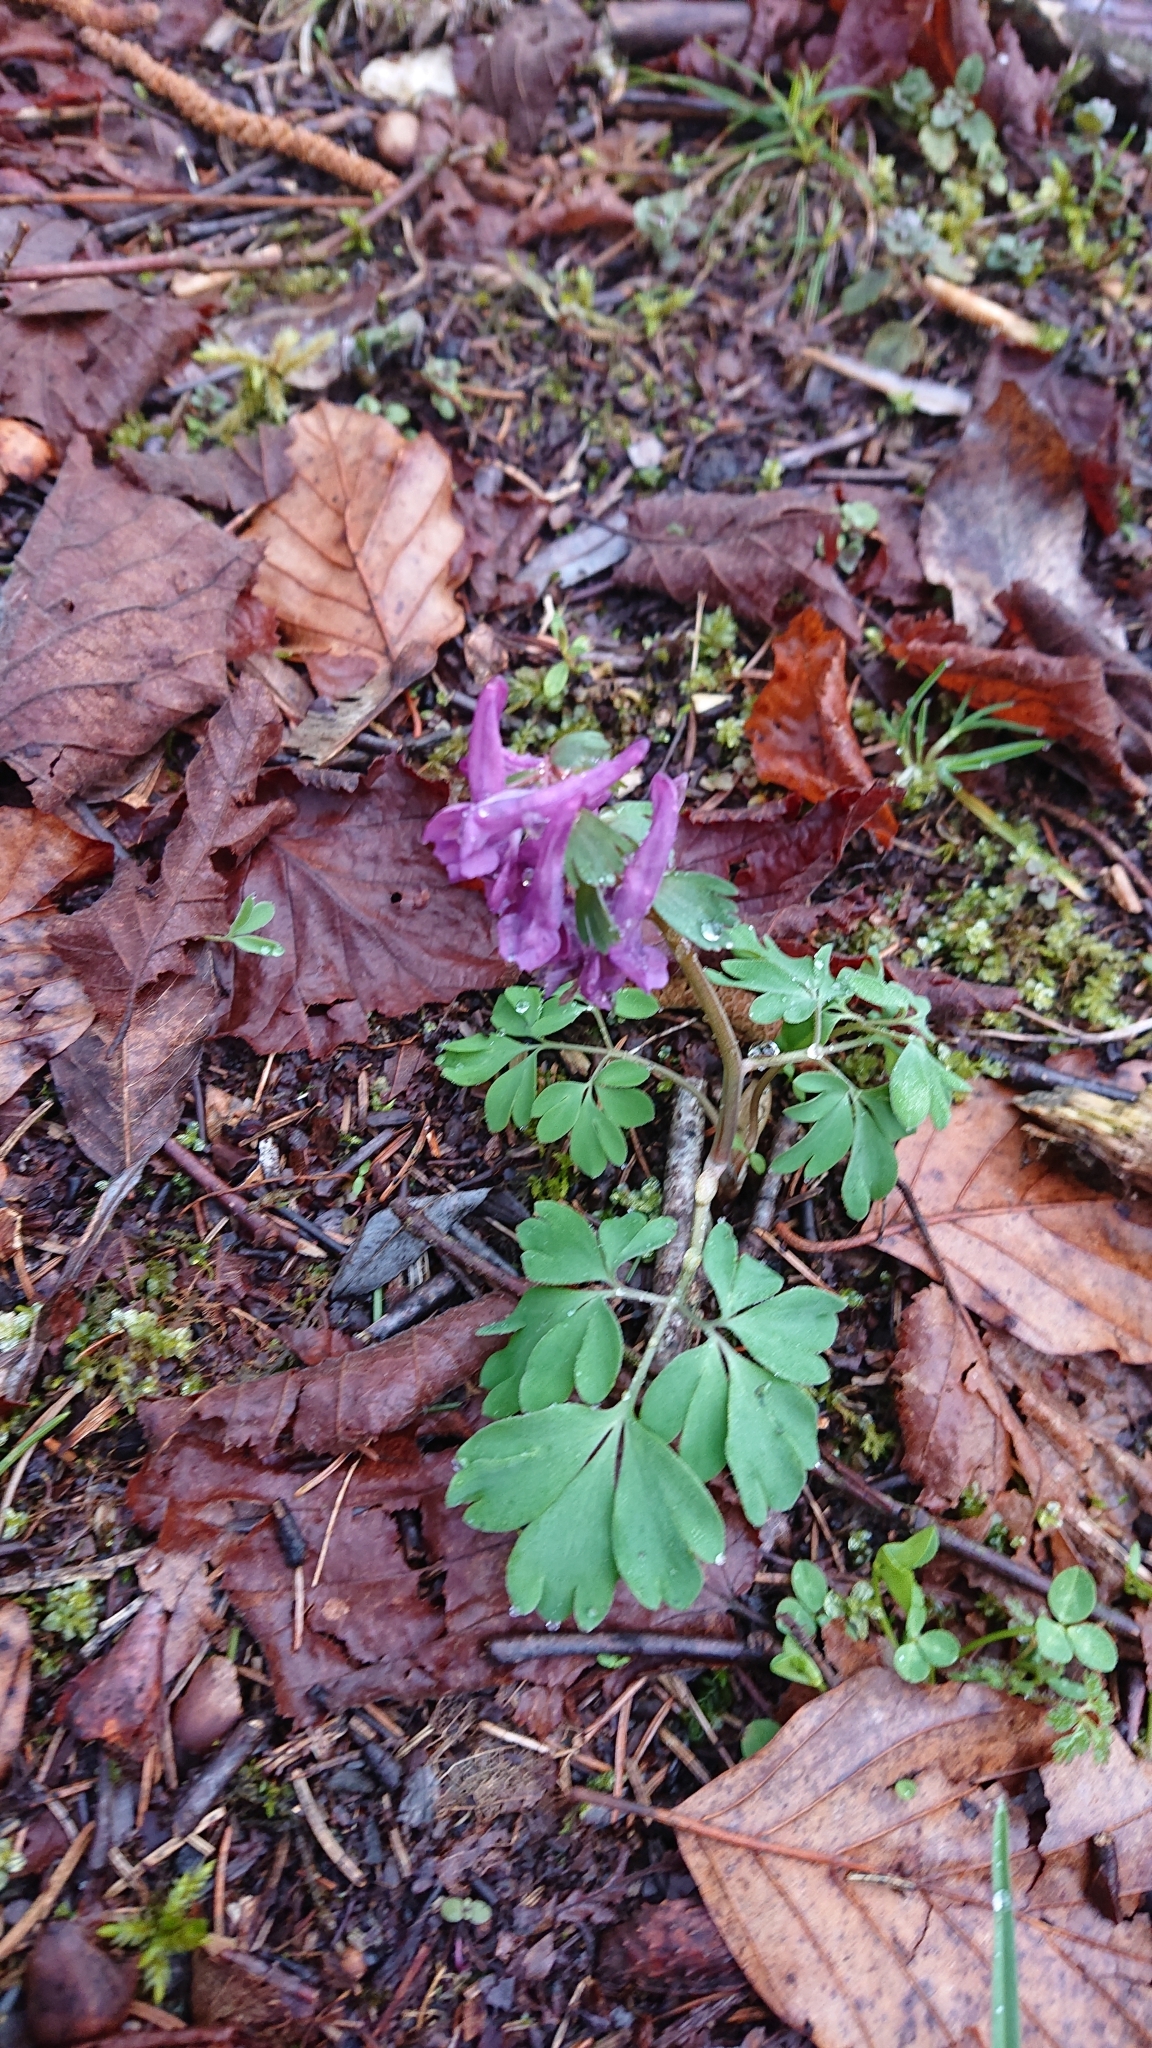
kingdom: Plantae
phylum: Tracheophyta
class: Magnoliopsida
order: Ranunculales
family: Papaveraceae
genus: Corydalis
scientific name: Corydalis solida
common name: Bird-in-a-bush
